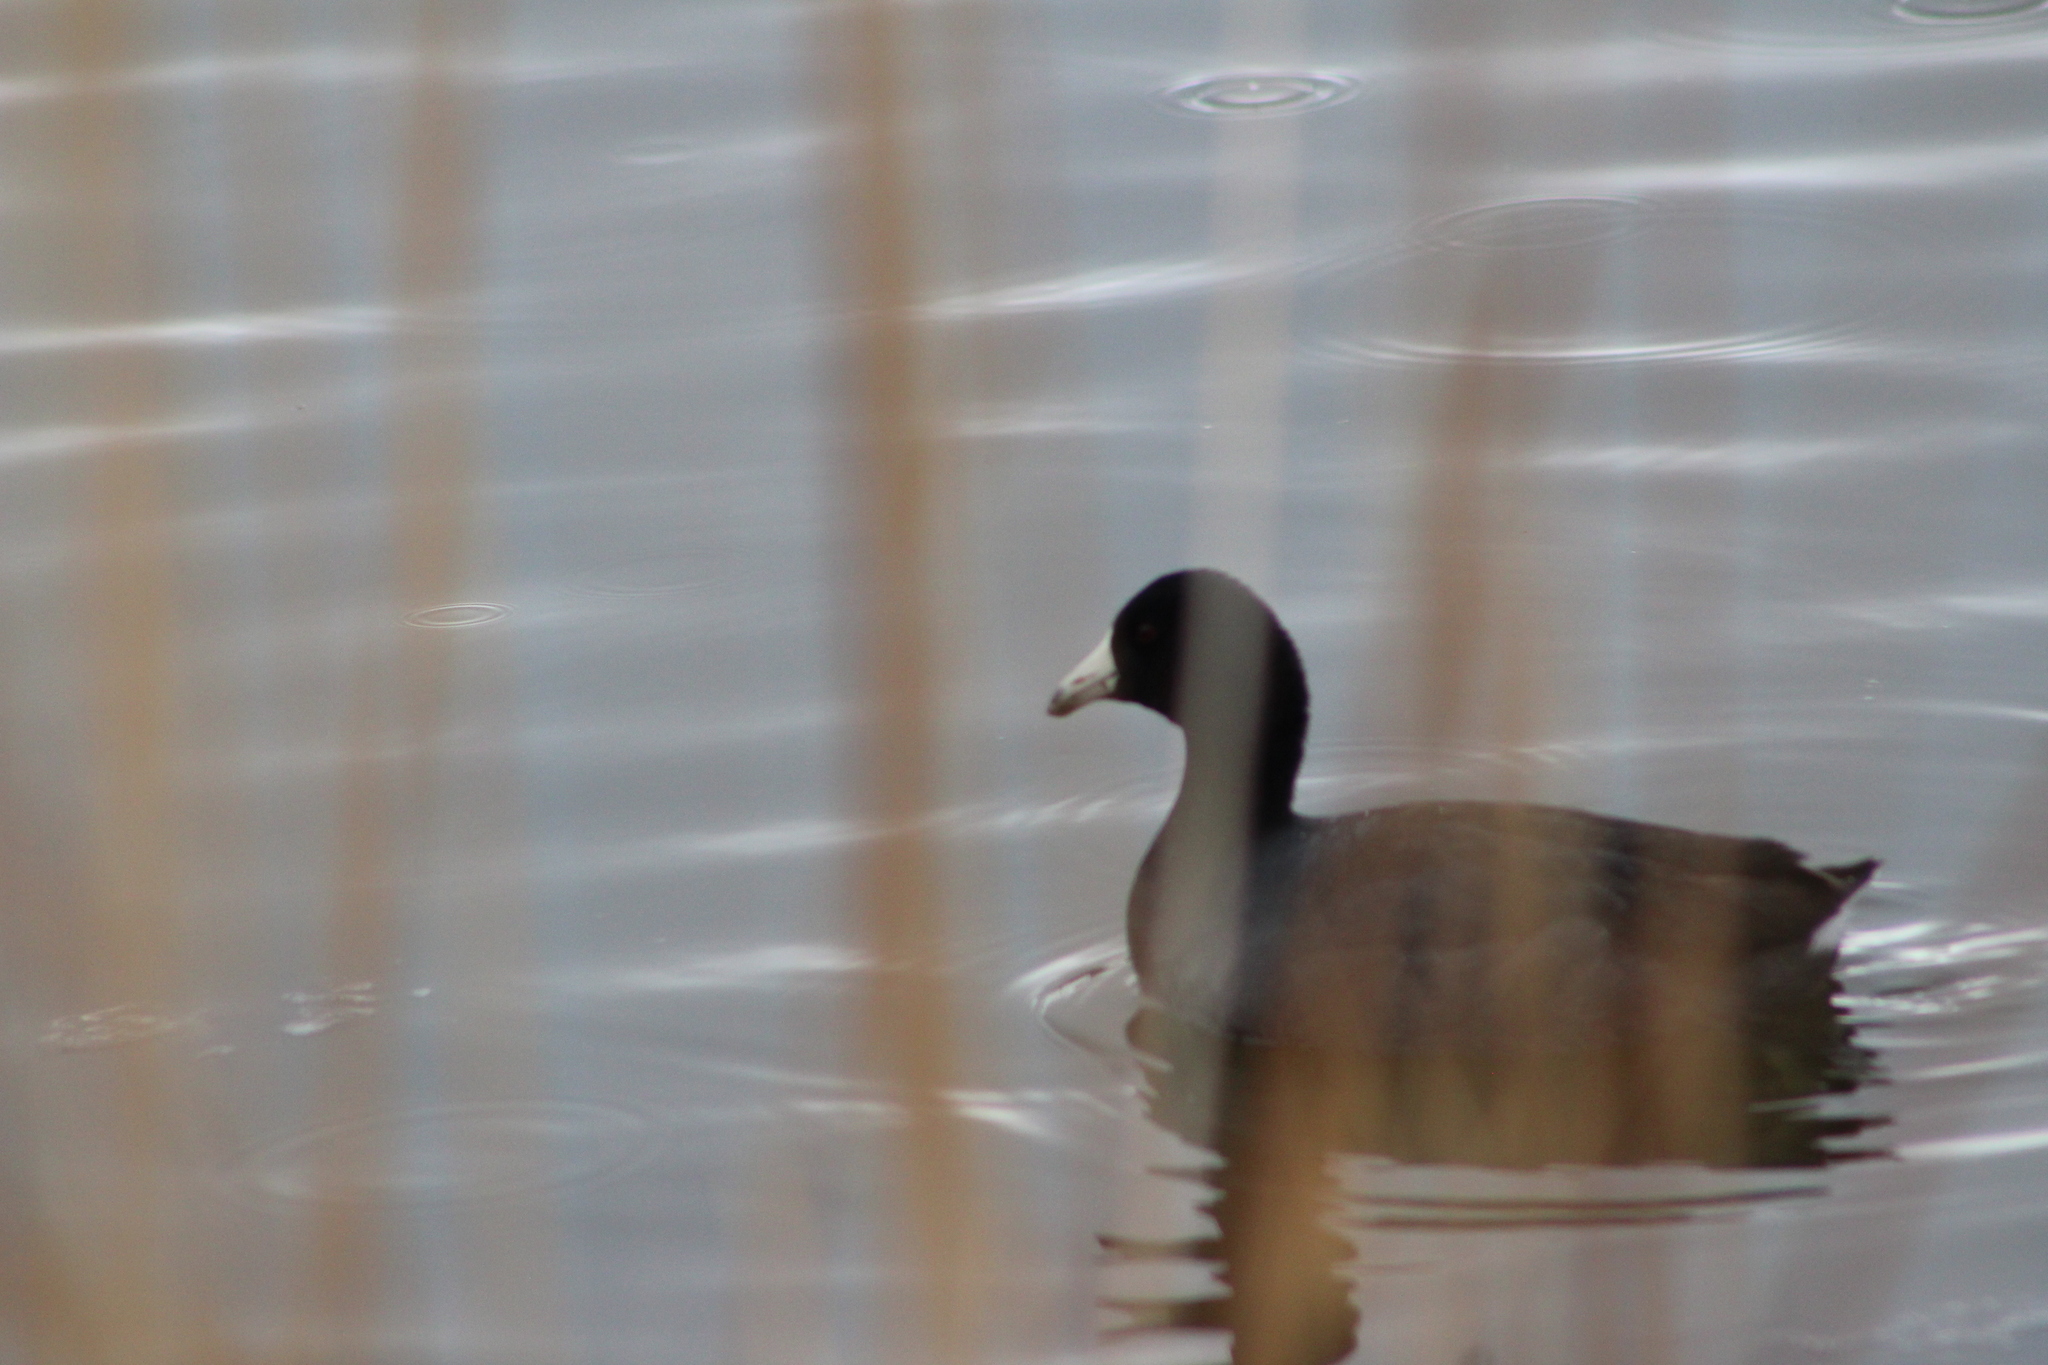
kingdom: Animalia
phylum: Chordata
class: Aves
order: Gruiformes
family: Rallidae
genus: Fulica
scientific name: Fulica americana
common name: American coot
